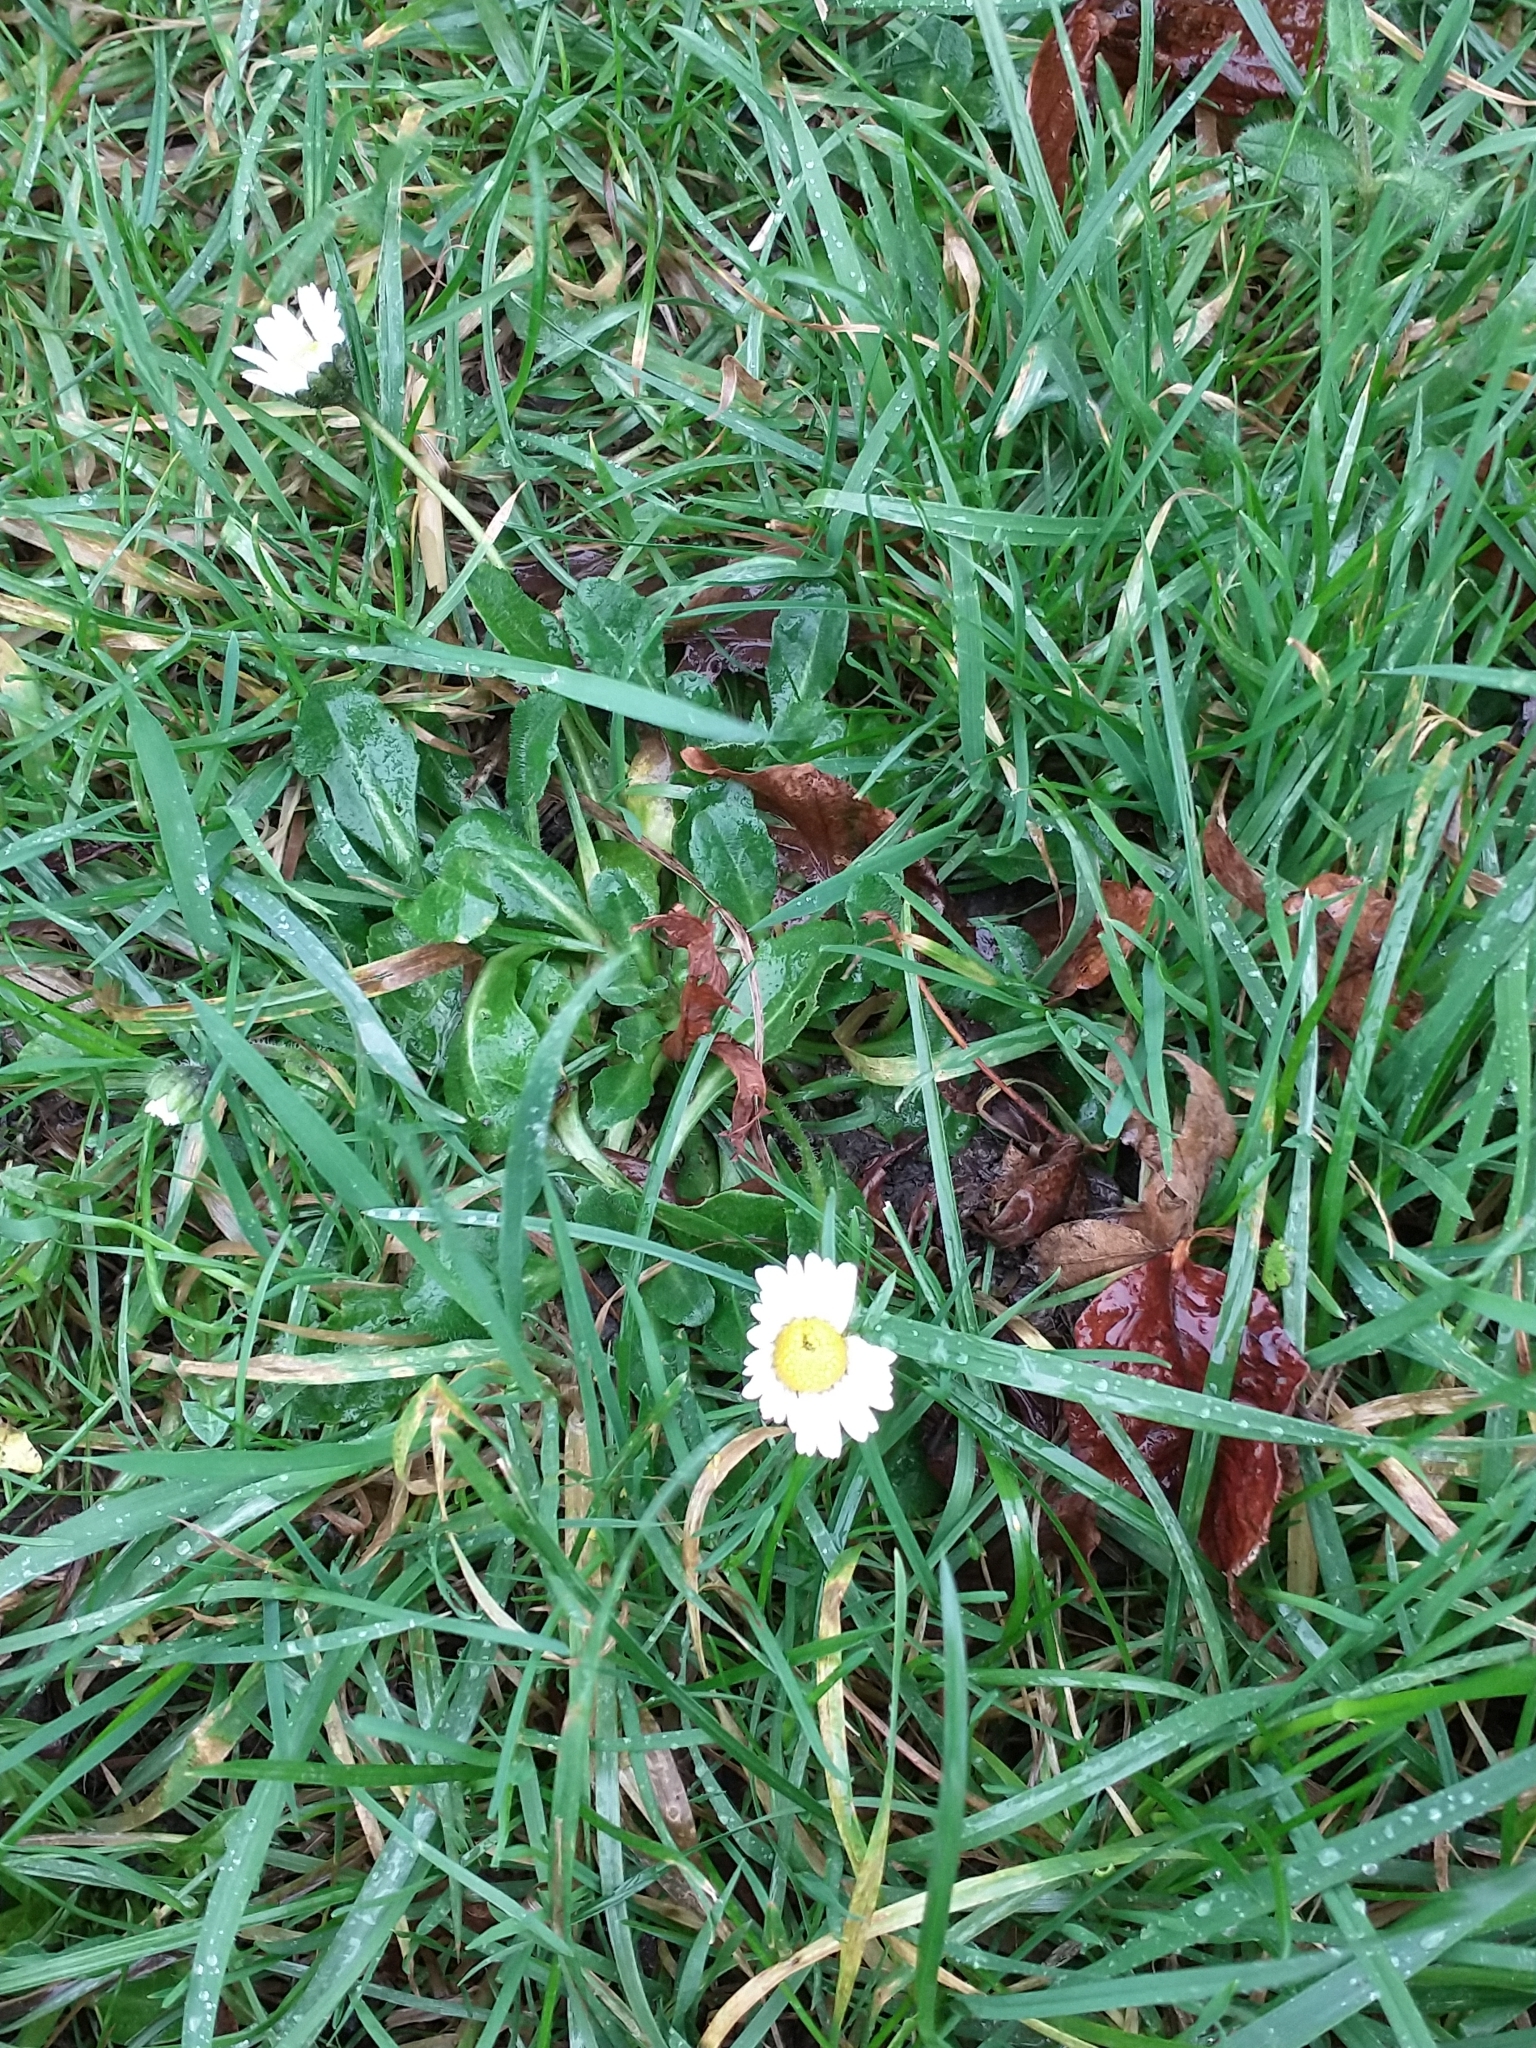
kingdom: Plantae
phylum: Tracheophyta
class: Magnoliopsida
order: Asterales
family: Asteraceae
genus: Bellis
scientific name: Bellis perennis
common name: Lawndaisy
